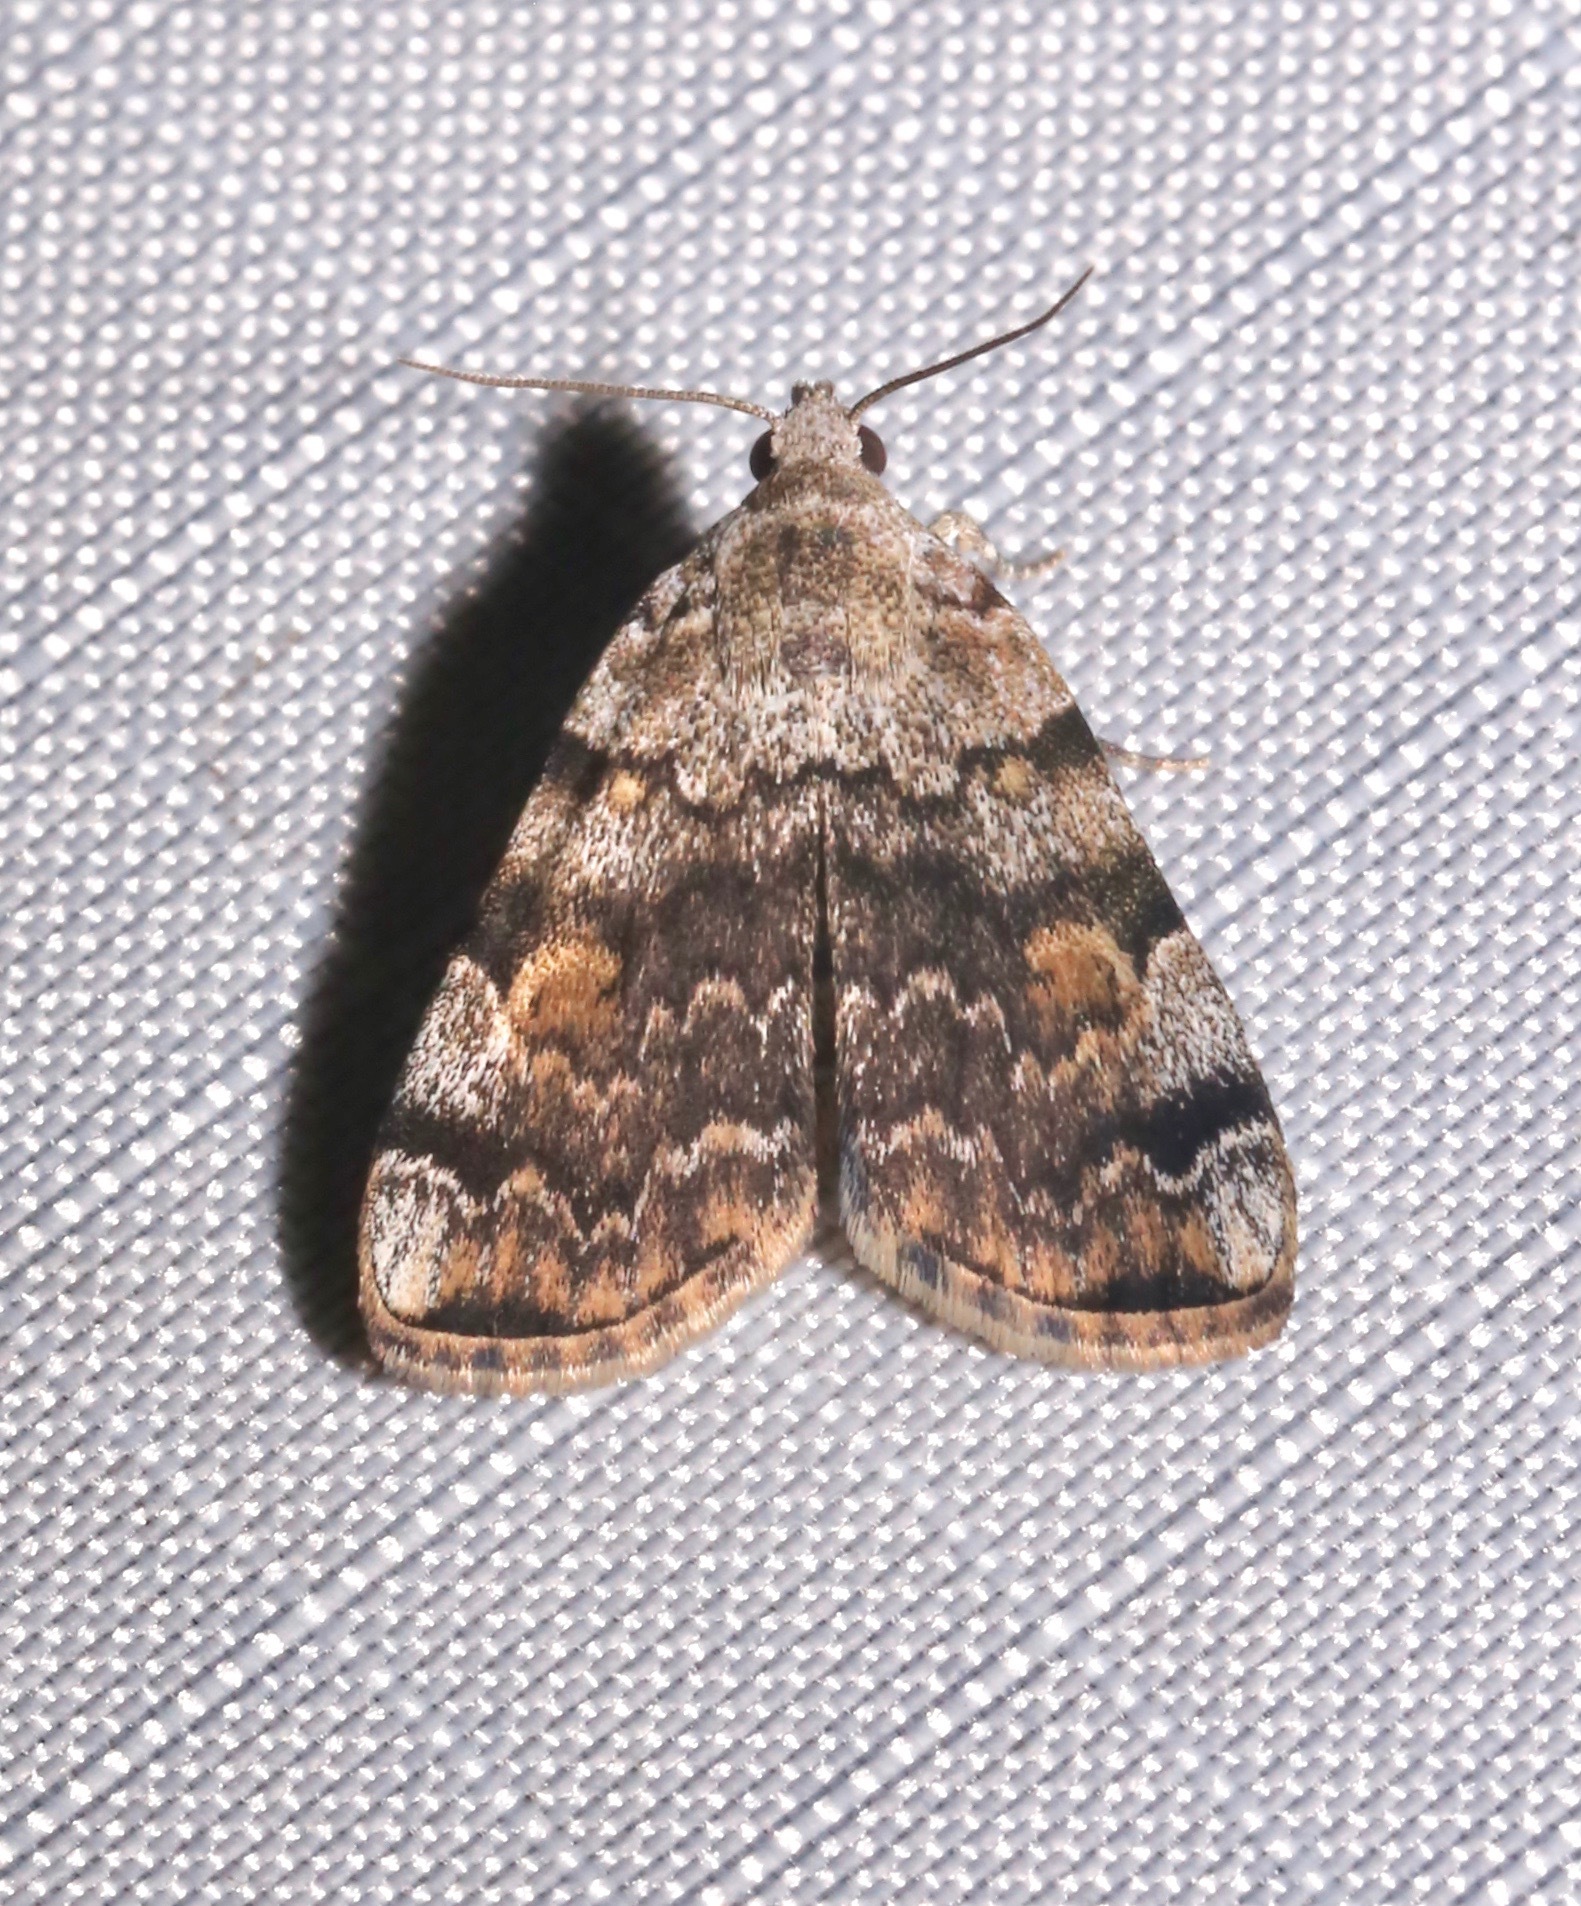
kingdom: Animalia
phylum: Arthropoda
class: Insecta
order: Lepidoptera
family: Erebidae
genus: Idia
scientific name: Idia americalis
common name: American idia moth
